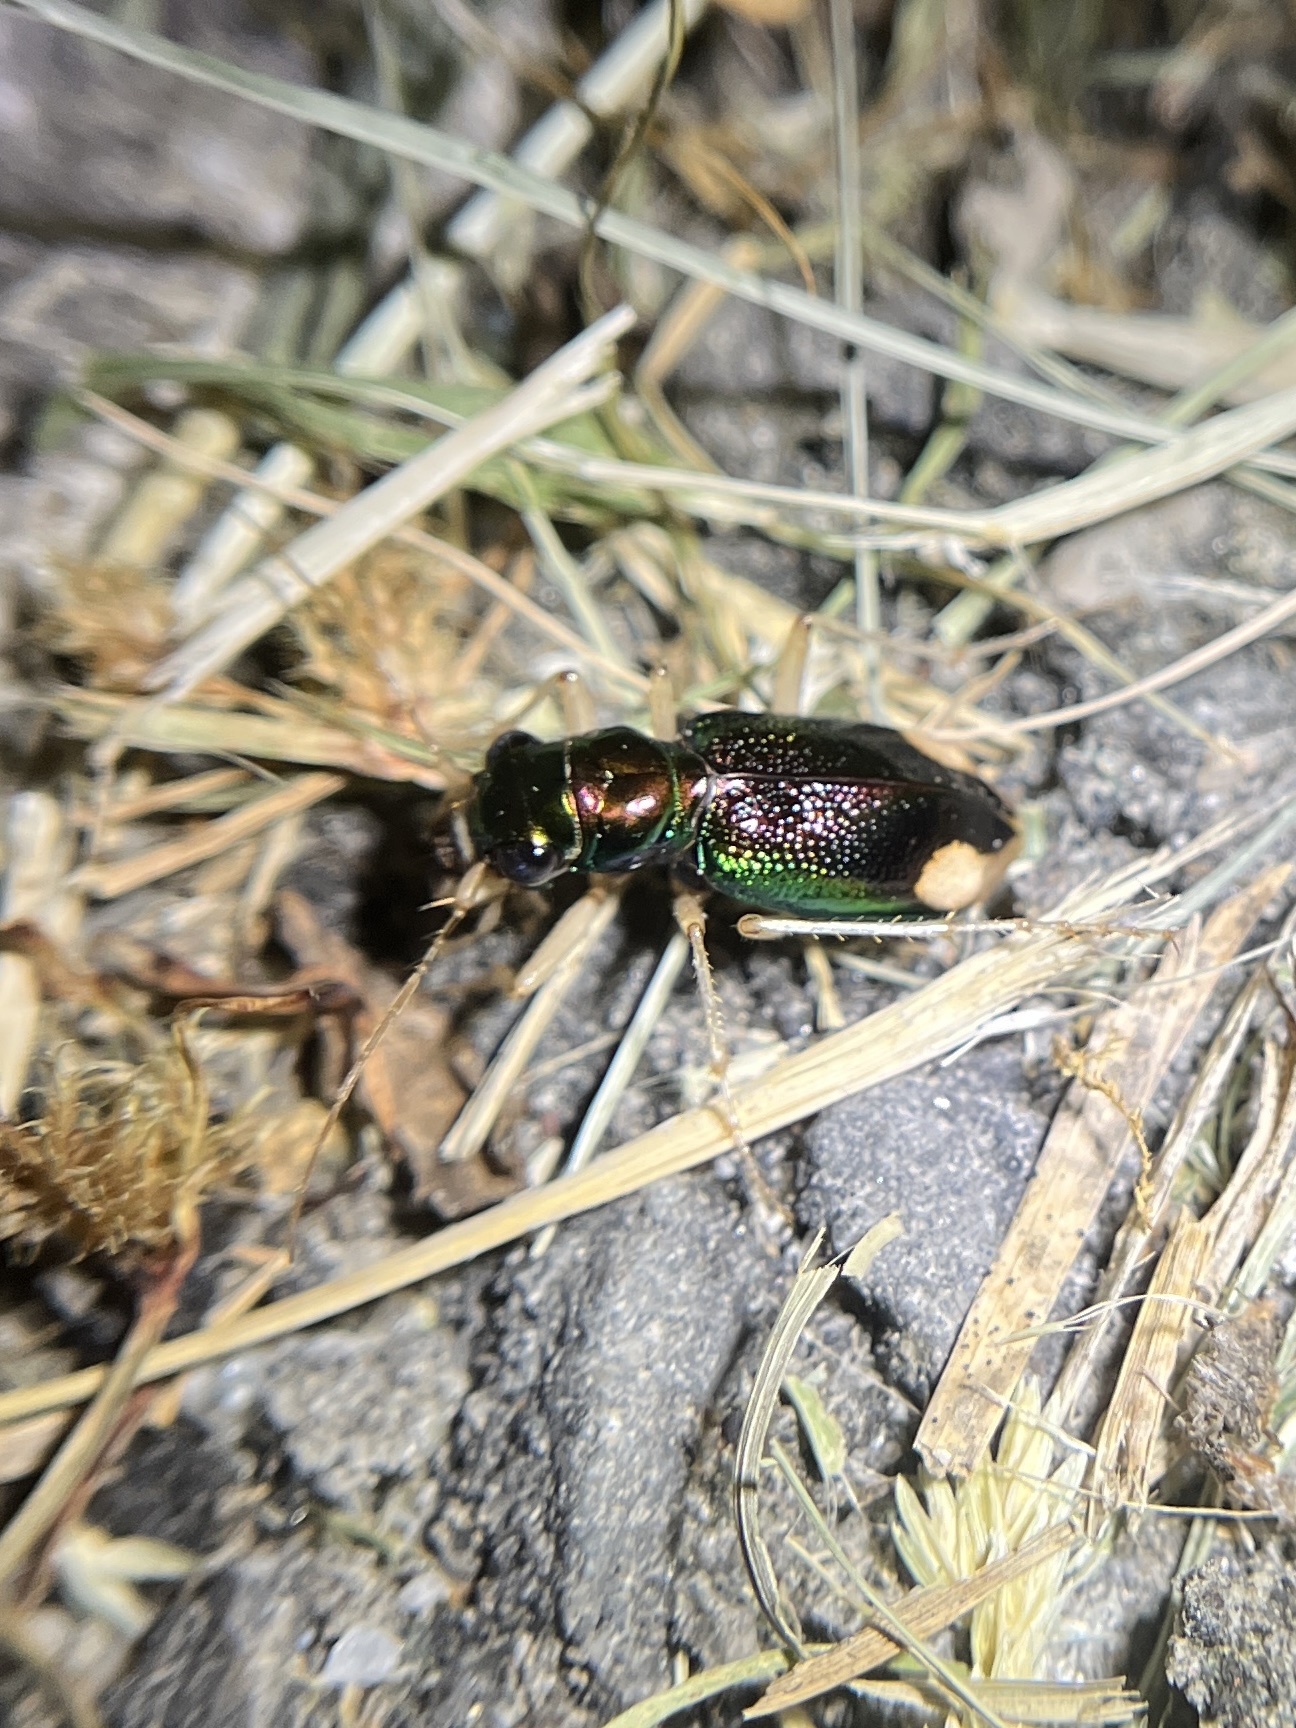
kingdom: Animalia
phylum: Arthropoda
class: Insecta
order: Coleoptera
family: Carabidae
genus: Tetracha
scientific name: Tetracha carolina
